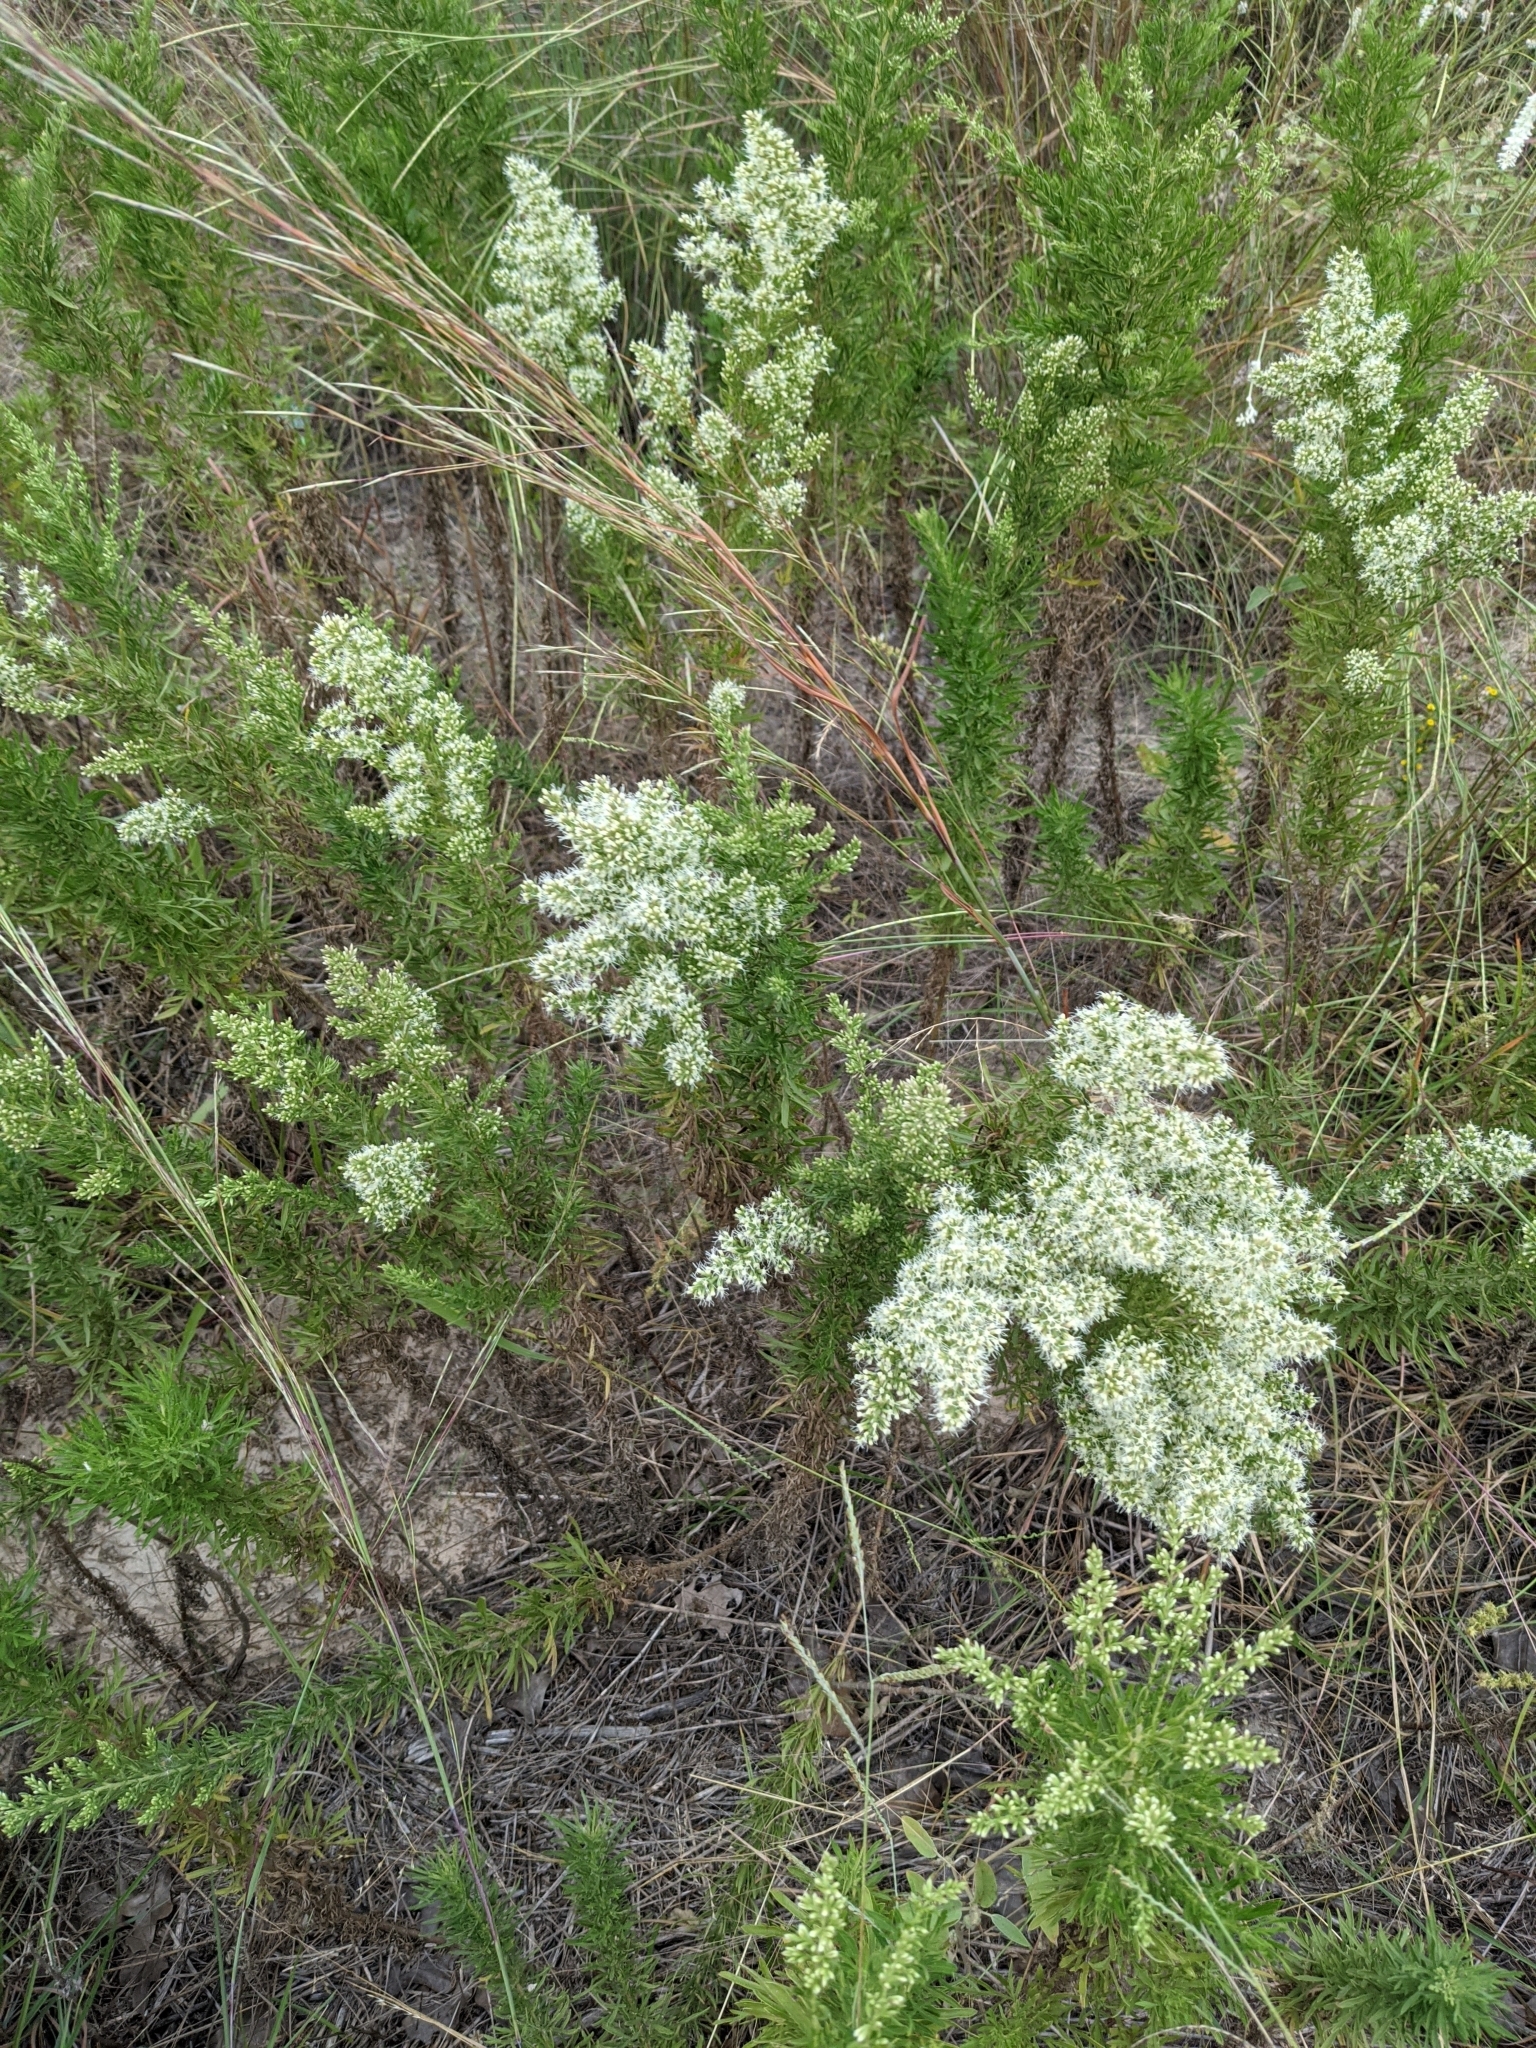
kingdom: Plantae
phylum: Tracheophyta
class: Magnoliopsida
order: Asterales
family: Asteraceae
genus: Eupatorium
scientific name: Eupatorium compositifolium
